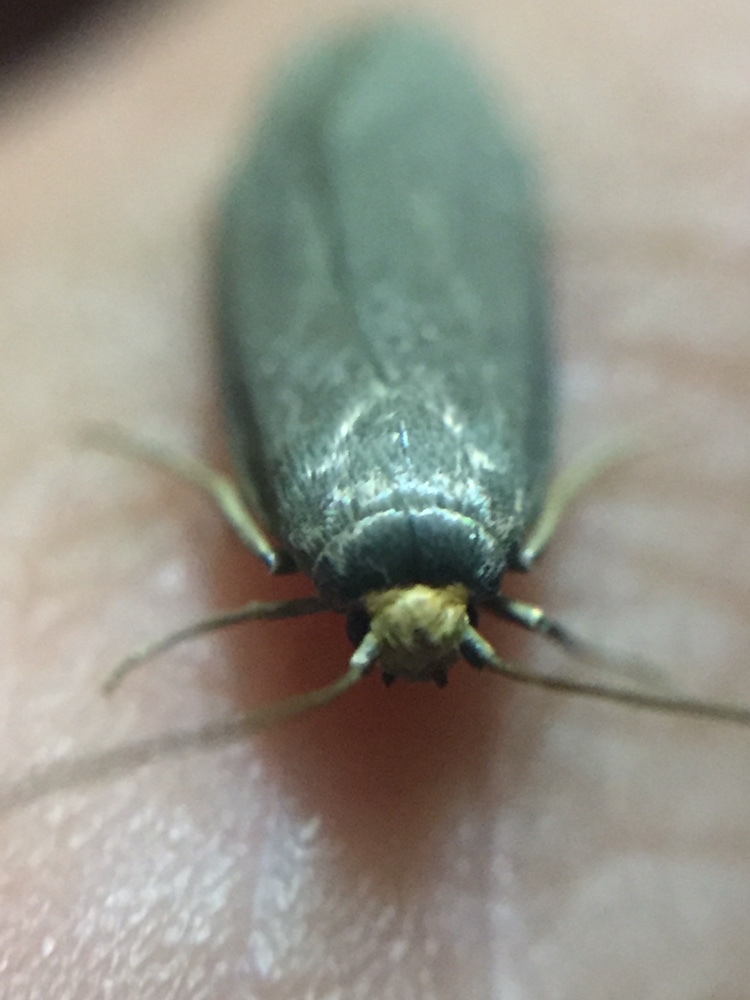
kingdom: Animalia
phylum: Arthropoda
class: Insecta
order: Lepidoptera
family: Pyralidae
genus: Achroia
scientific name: Achroia grisella
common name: Lesser wax moth
